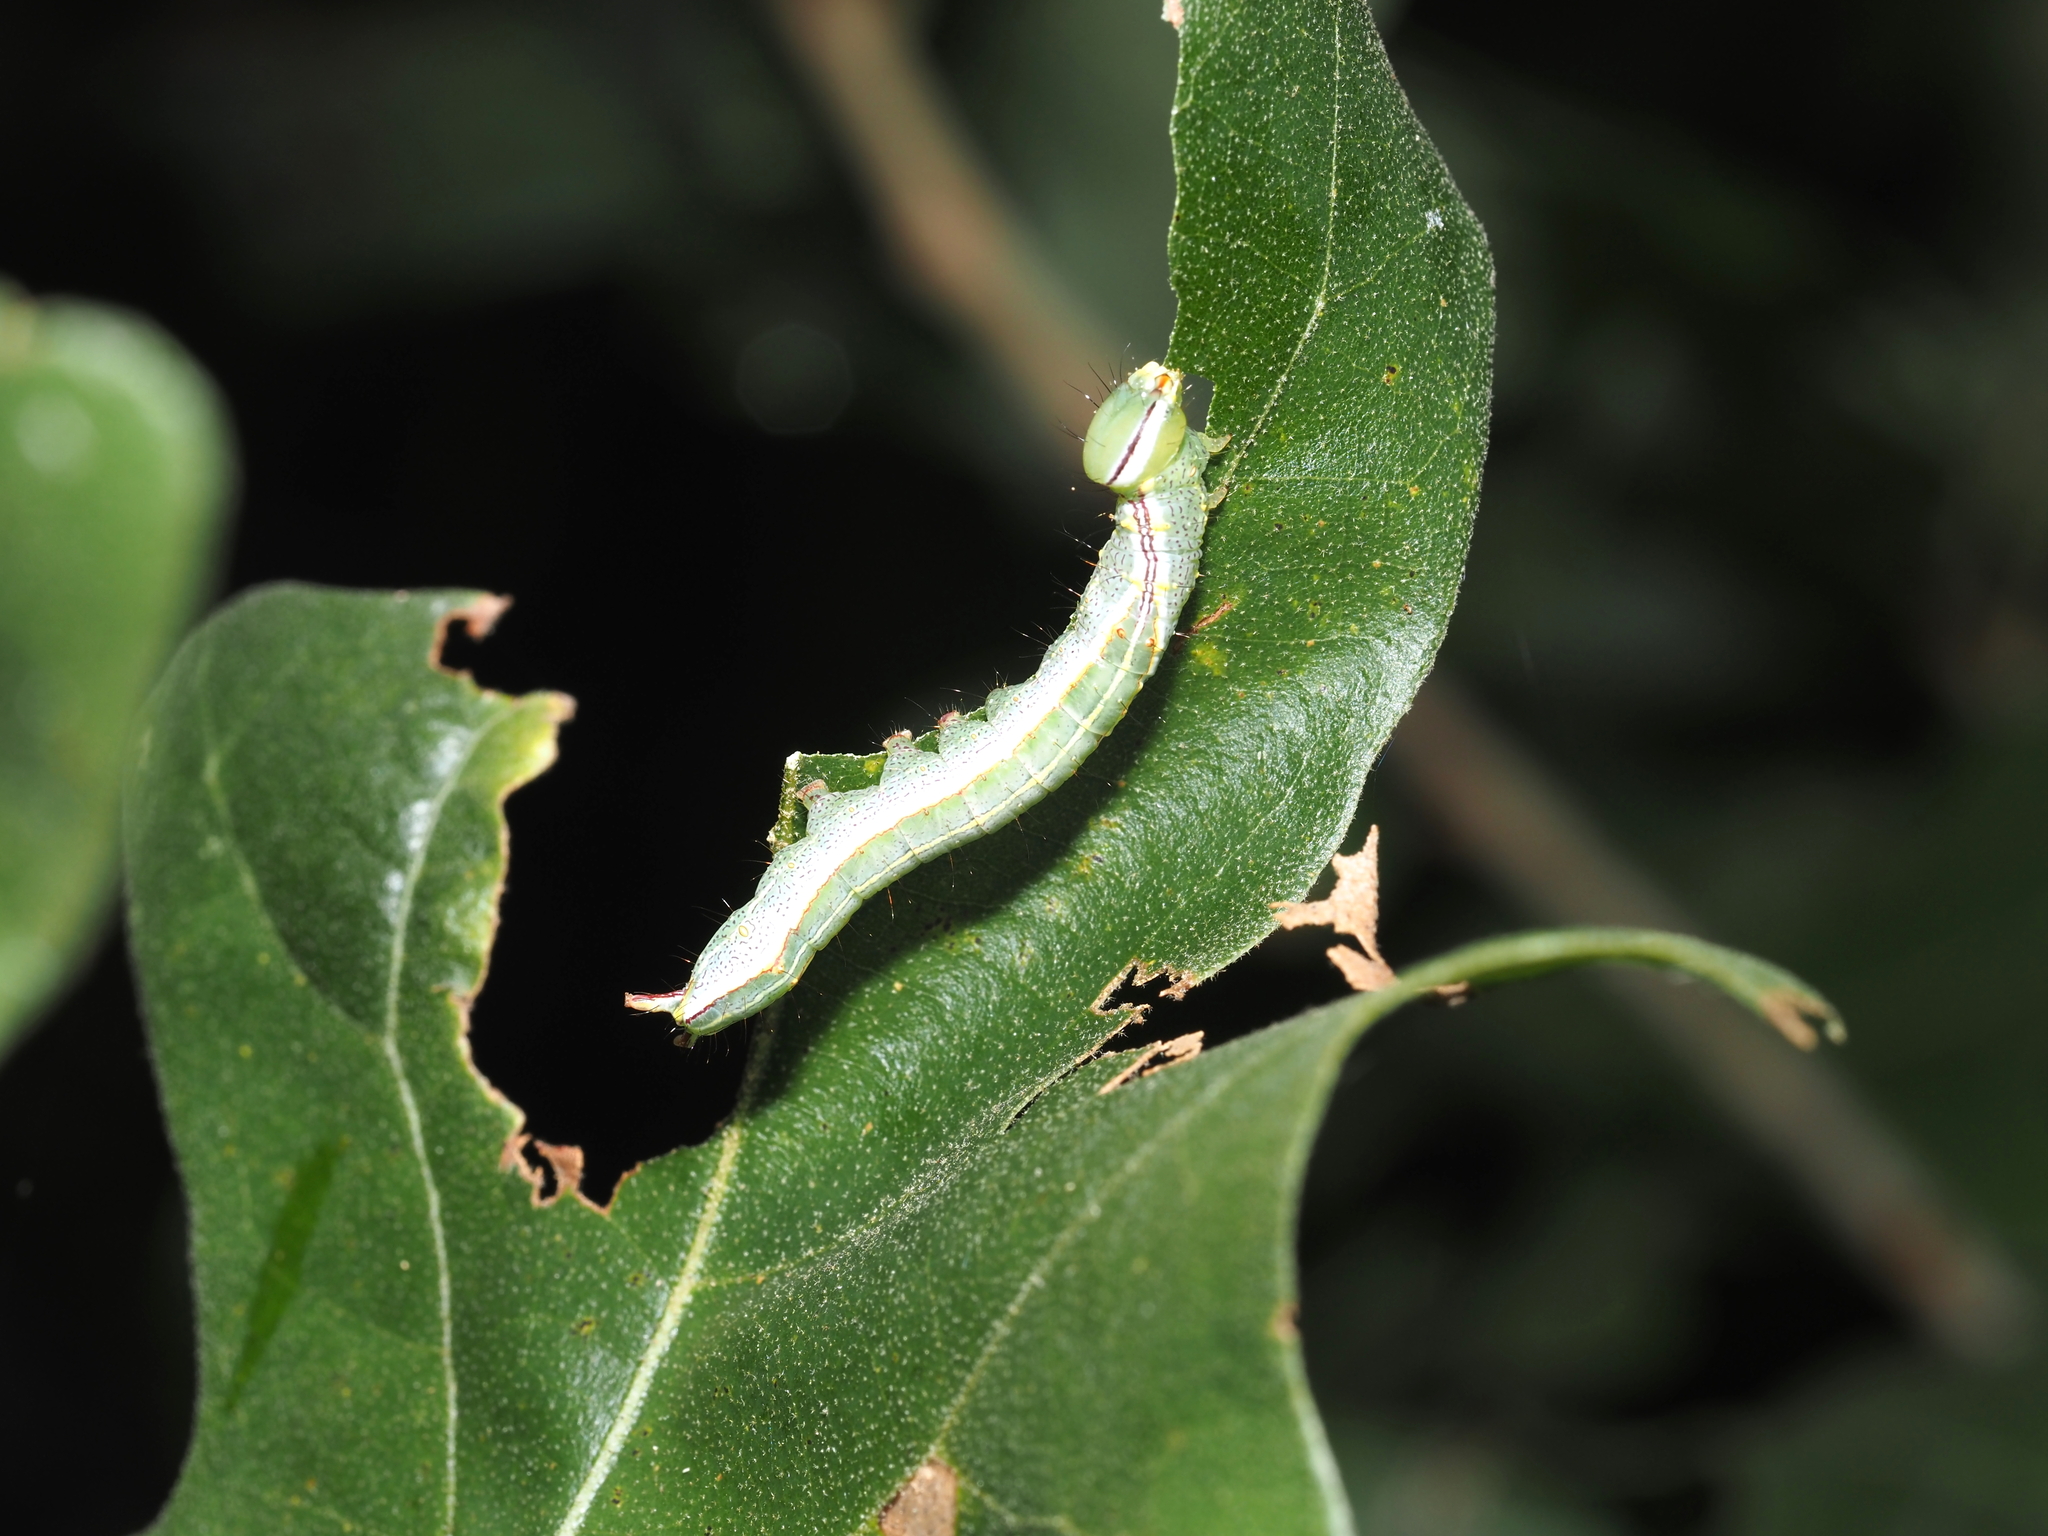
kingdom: Animalia
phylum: Arthropoda
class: Insecta
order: Lepidoptera
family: Notodontidae
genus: Lochmaeus
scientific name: Lochmaeus manteo
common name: Variable oakleaf caterpillar moth
